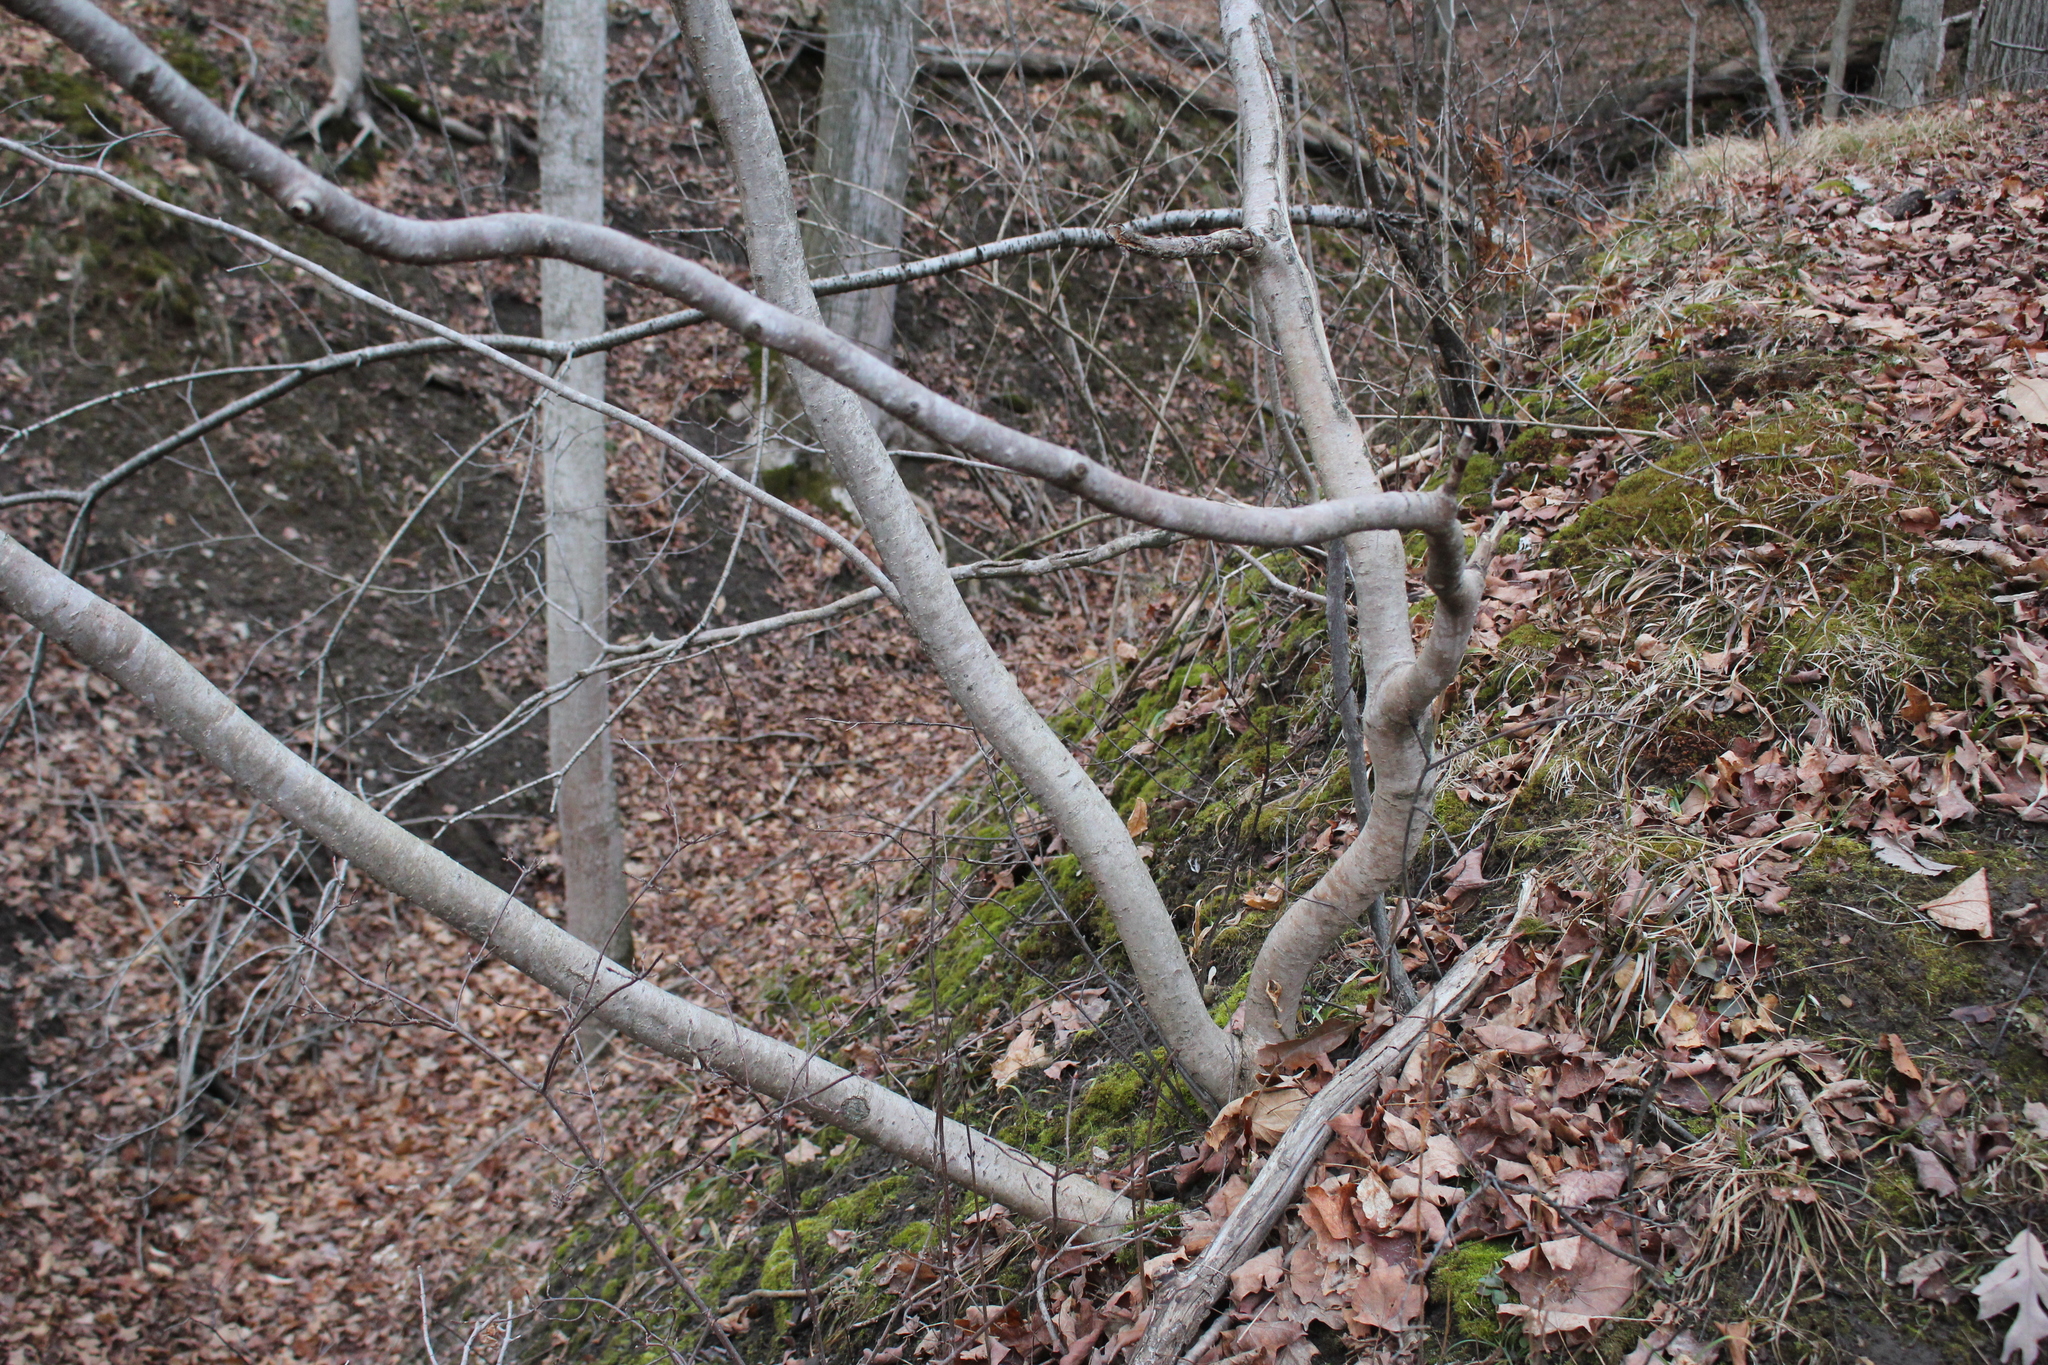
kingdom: Plantae
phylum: Tracheophyta
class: Magnoliopsida
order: Saxifragales
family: Hamamelidaceae
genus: Hamamelis
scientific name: Hamamelis virginiana
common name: Witch-hazel
